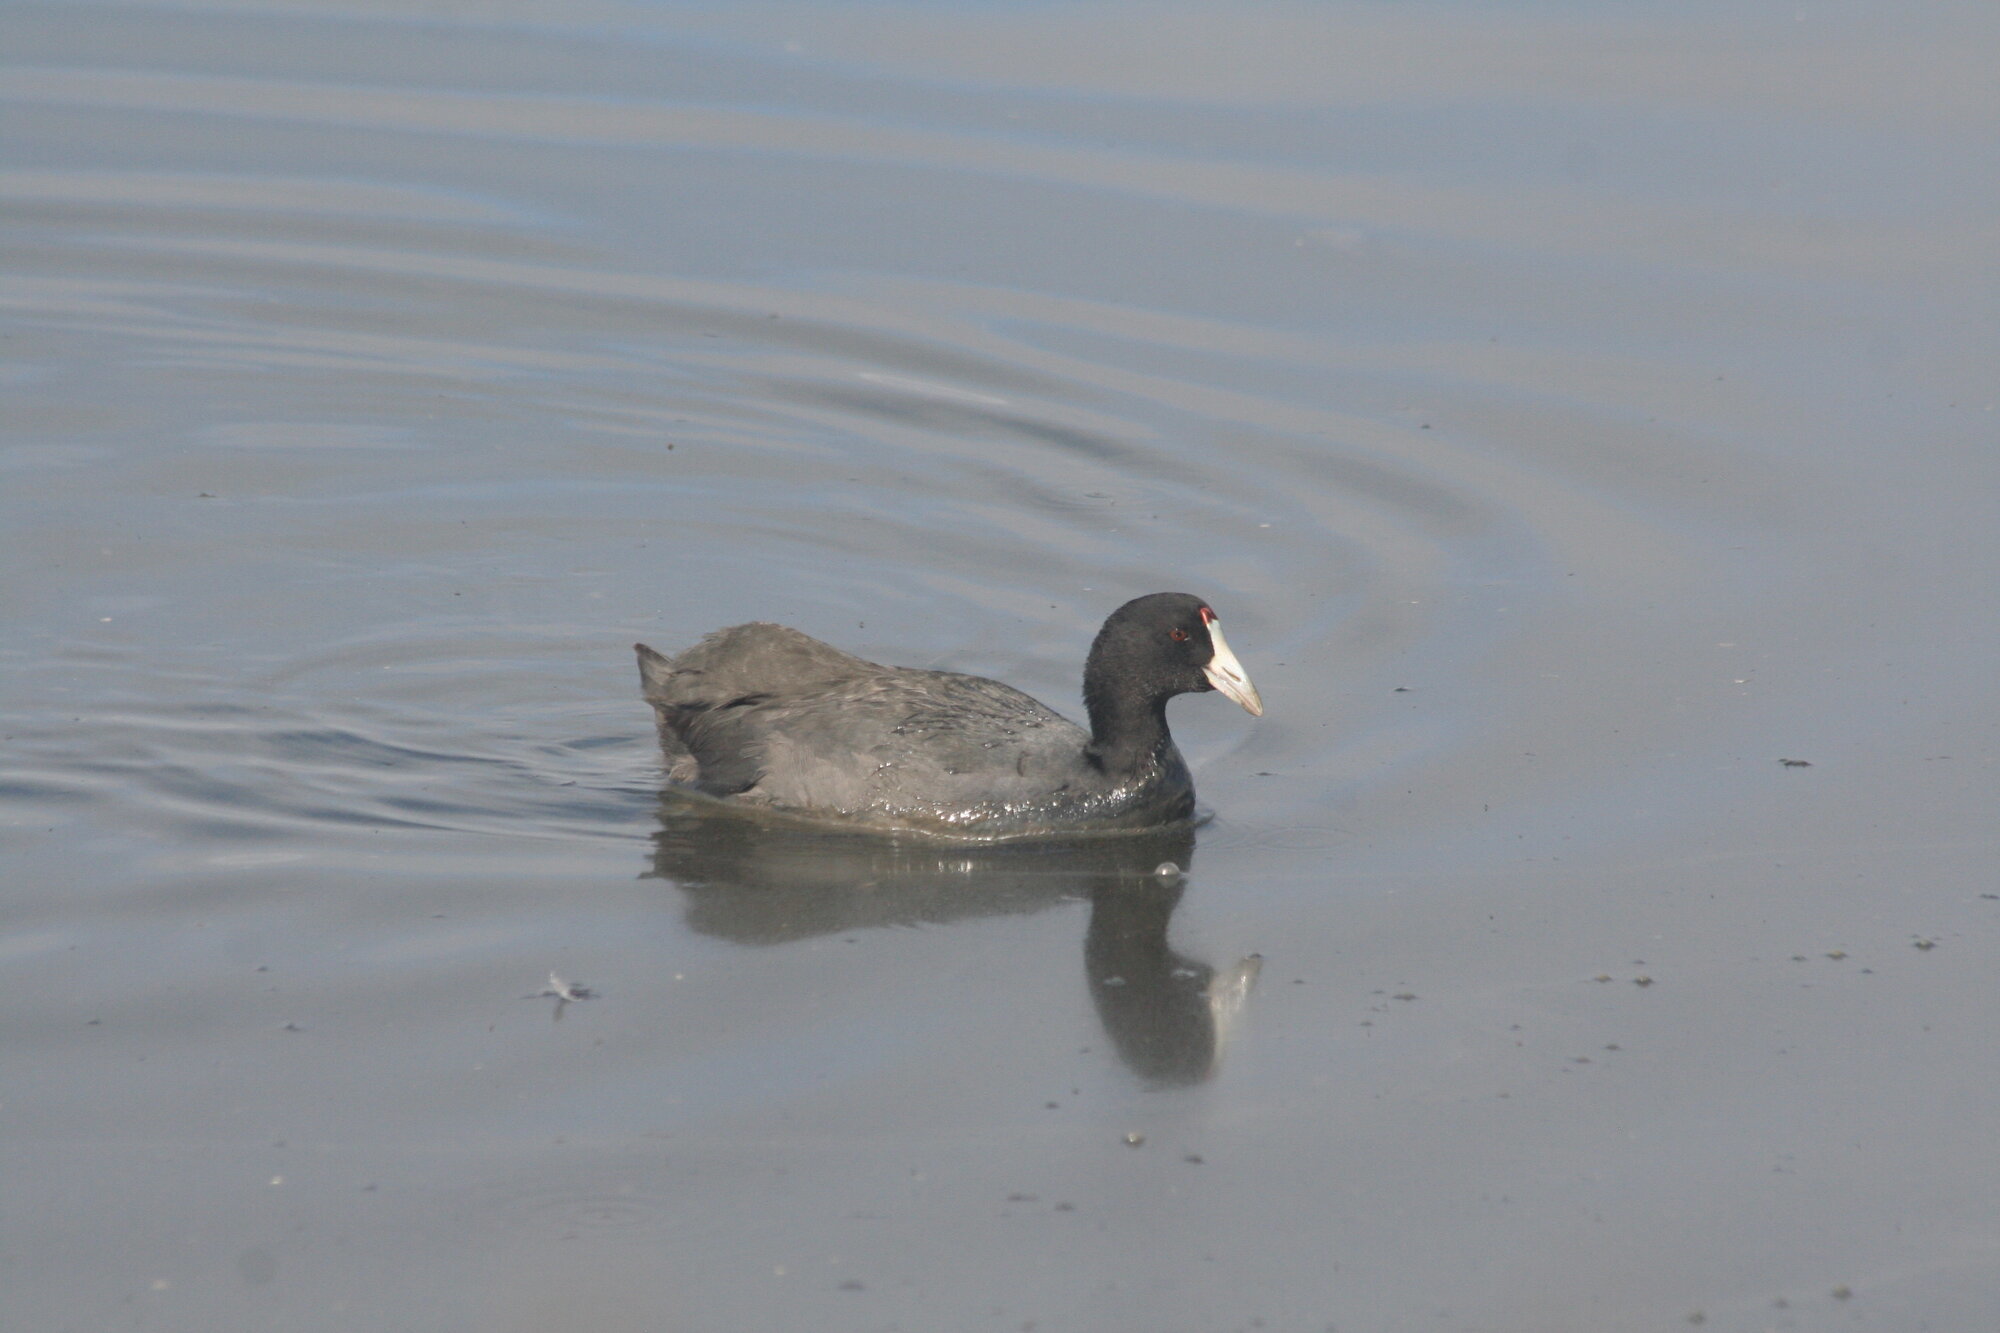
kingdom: Animalia
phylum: Chordata
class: Aves
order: Gruiformes
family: Rallidae
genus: Fulica
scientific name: Fulica cristata
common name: Red-knobbed coot
